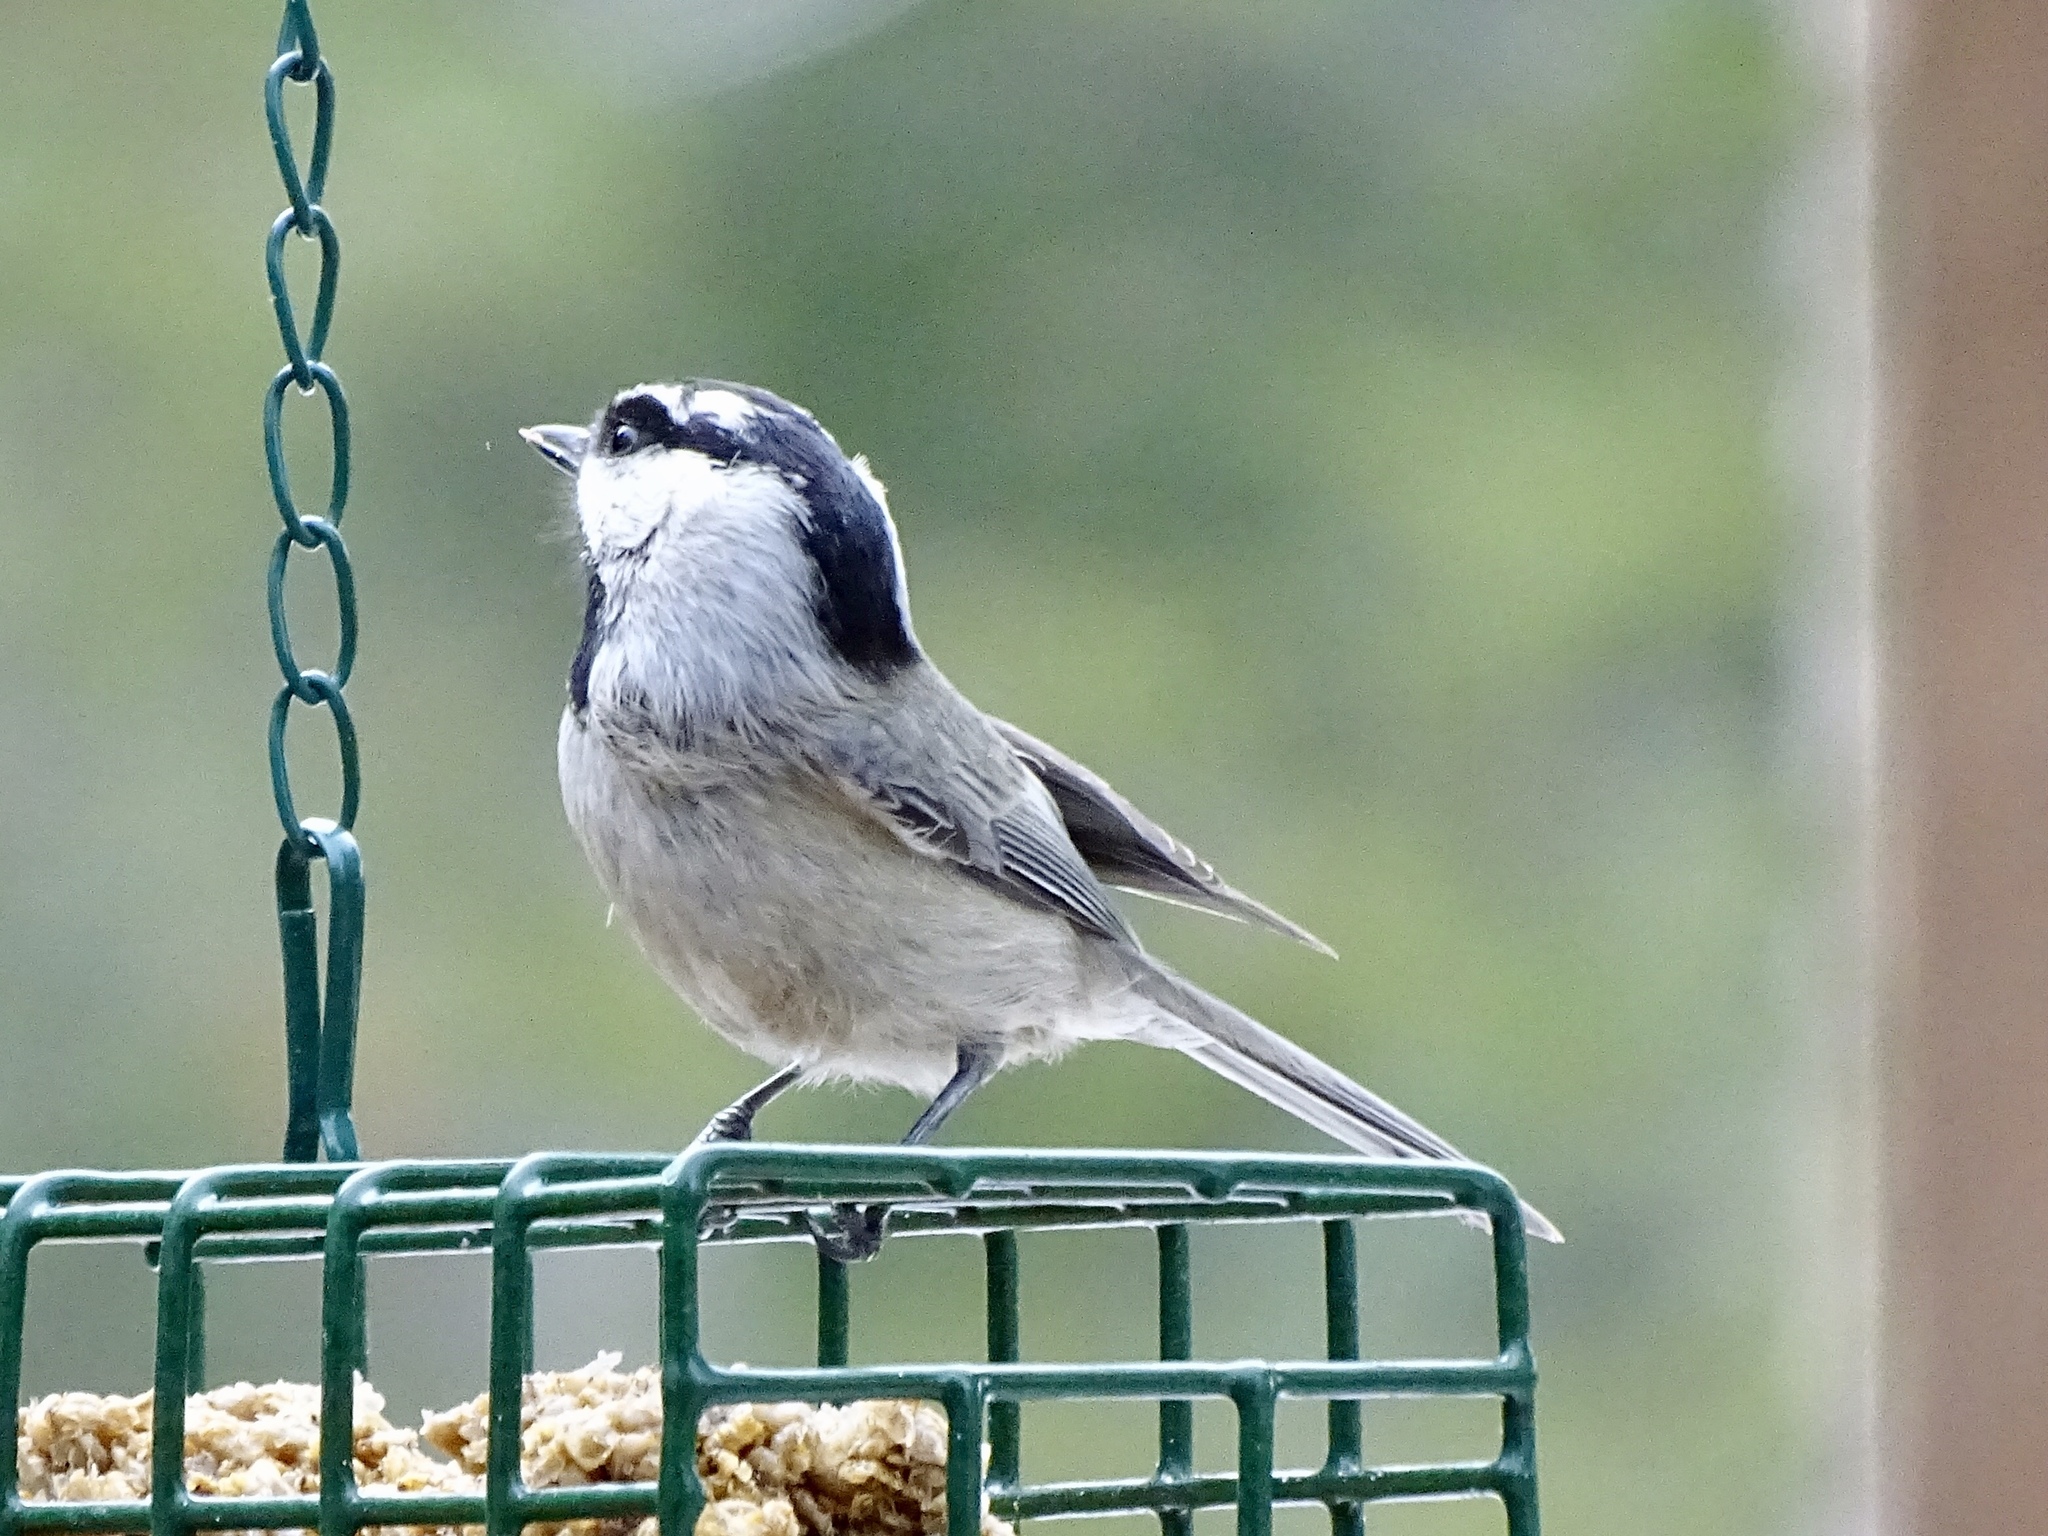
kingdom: Animalia
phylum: Chordata
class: Aves
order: Passeriformes
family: Paridae
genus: Poecile
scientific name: Poecile gambeli
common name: Mountain chickadee
